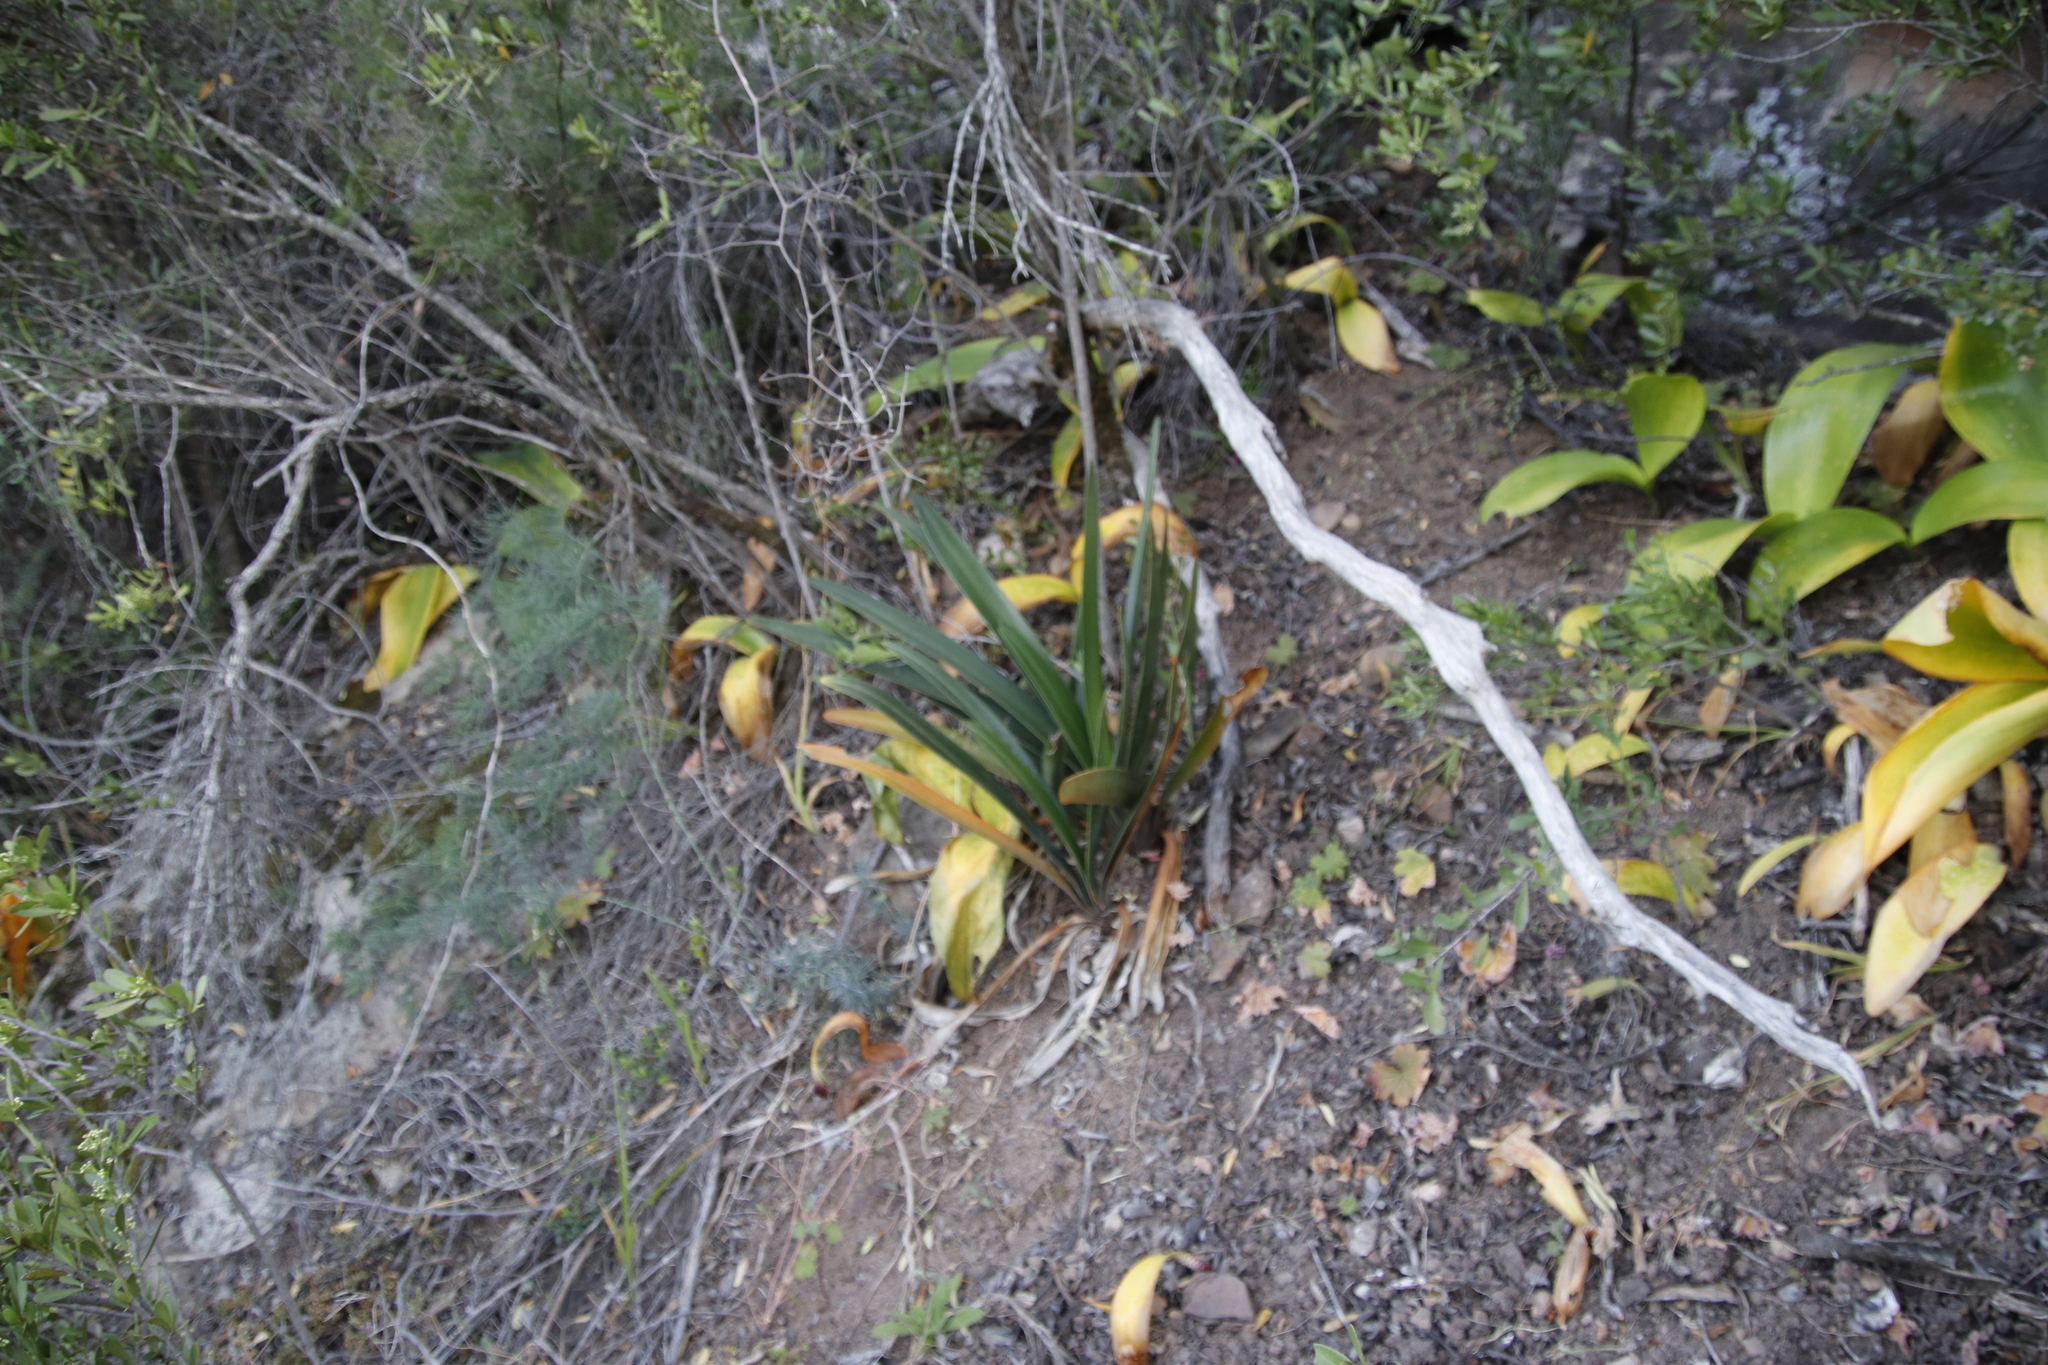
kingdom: Plantae
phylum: Tracheophyta
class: Liliopsida
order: Asparagales
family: Amaryllidaceae
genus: Clivia
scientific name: Clivia mirabilis
